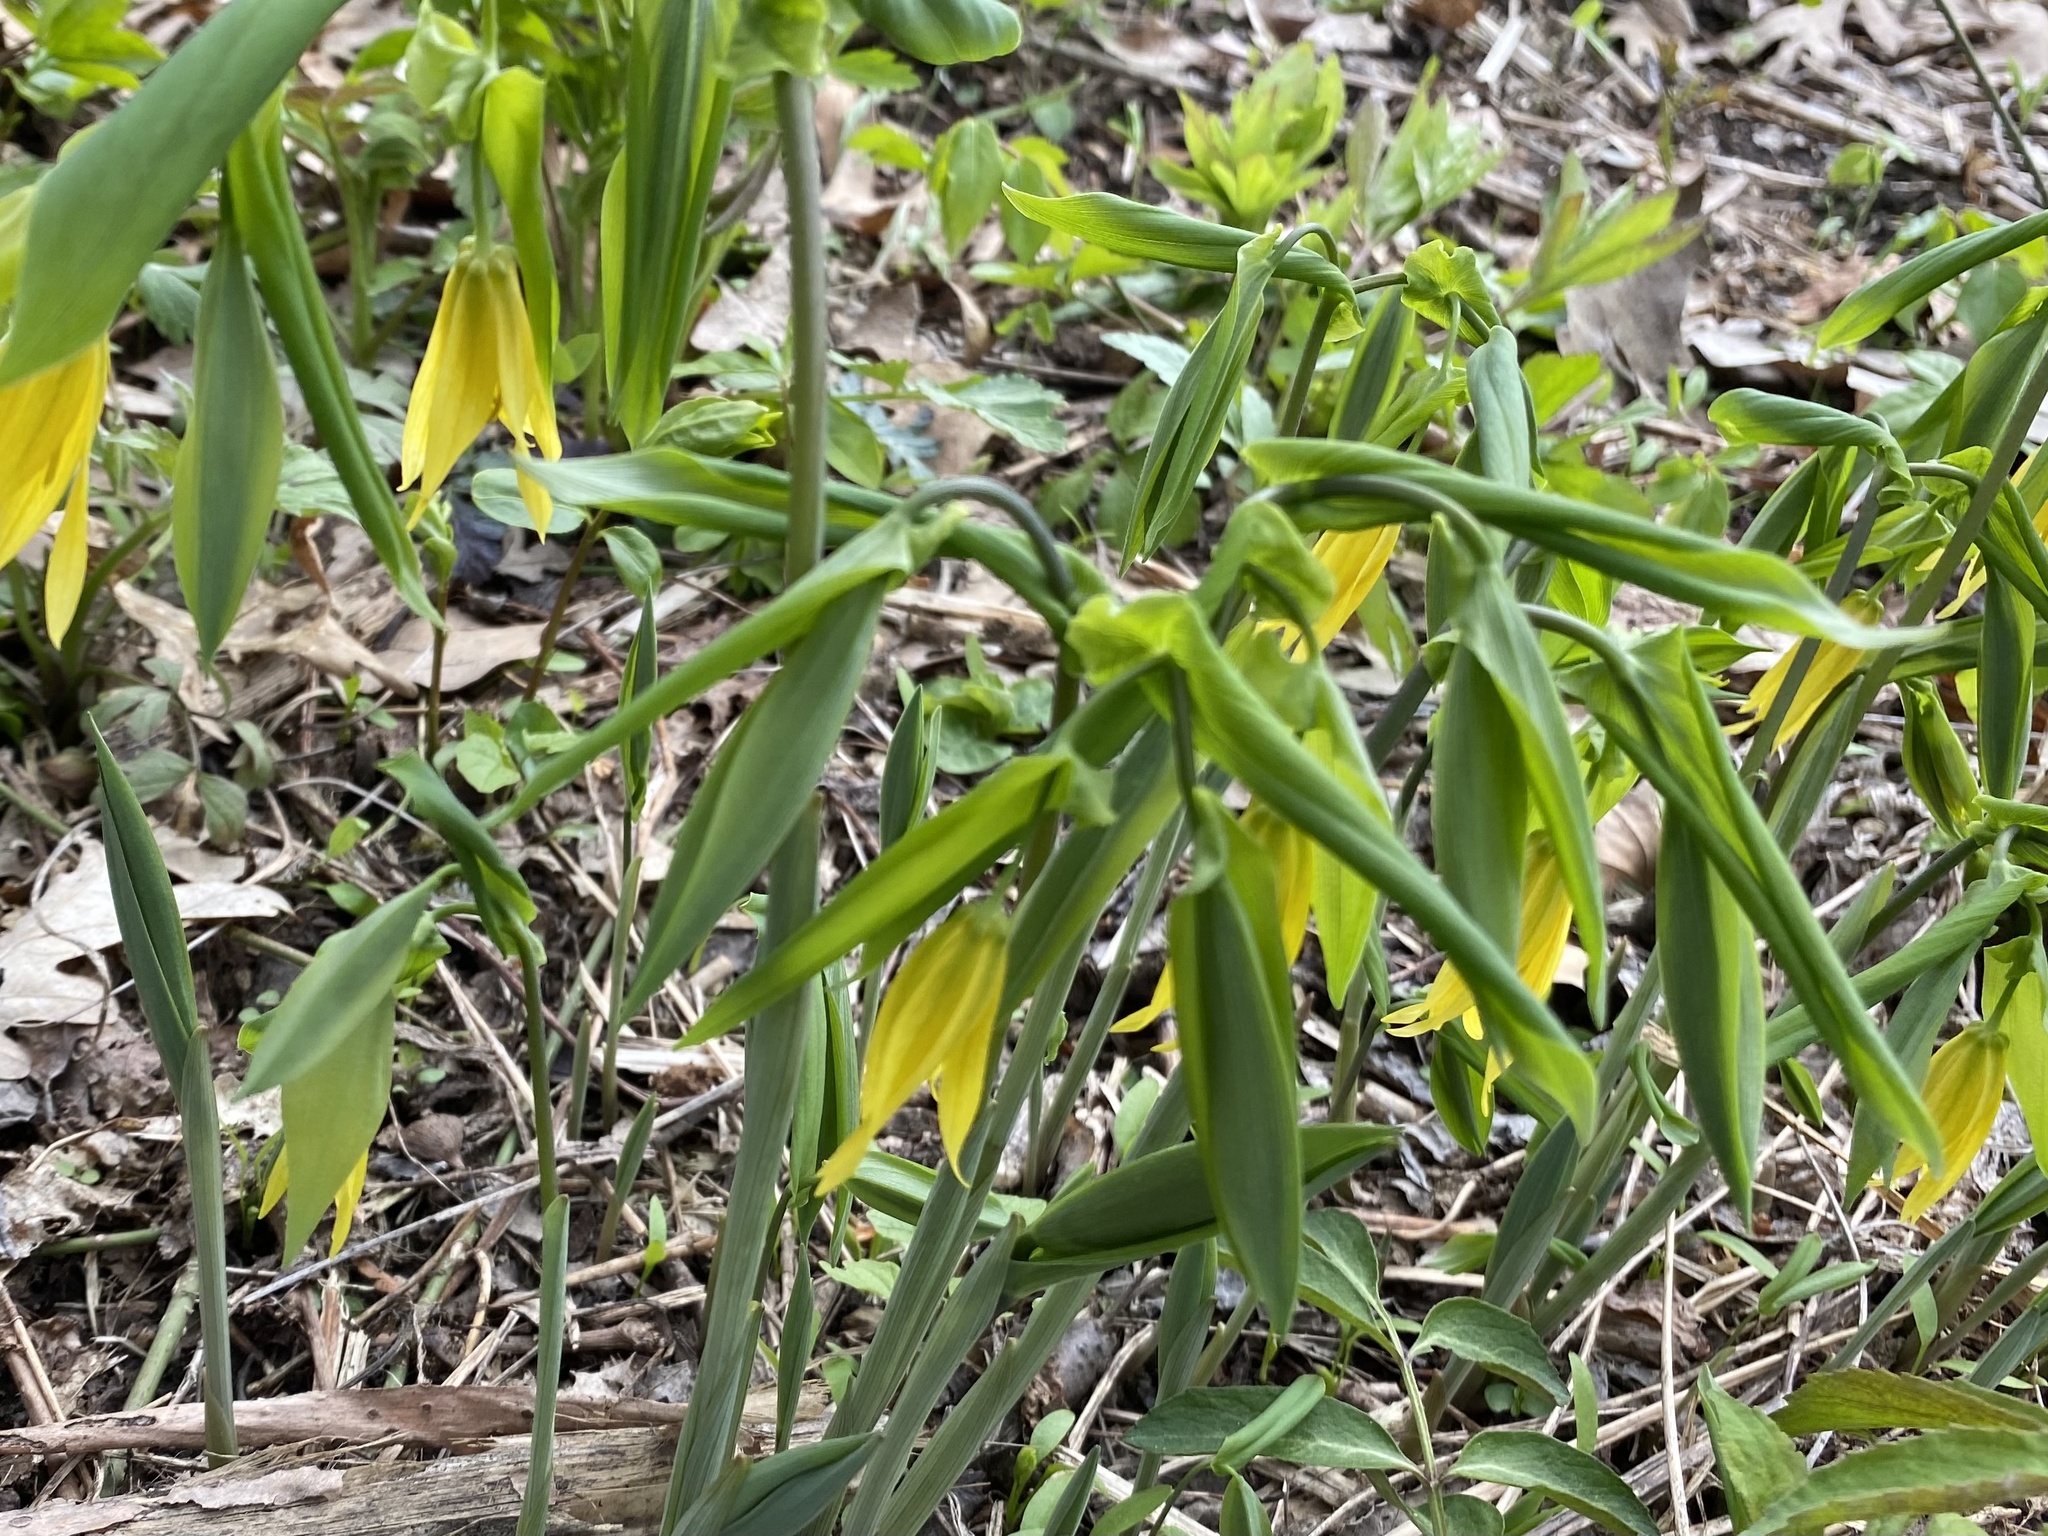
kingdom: Plantae
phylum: Tracheophyta
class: Liliopsida
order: Liliales
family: Colchicaceae
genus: Uvularia
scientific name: Uvularia grandiflora
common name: Bellwort
